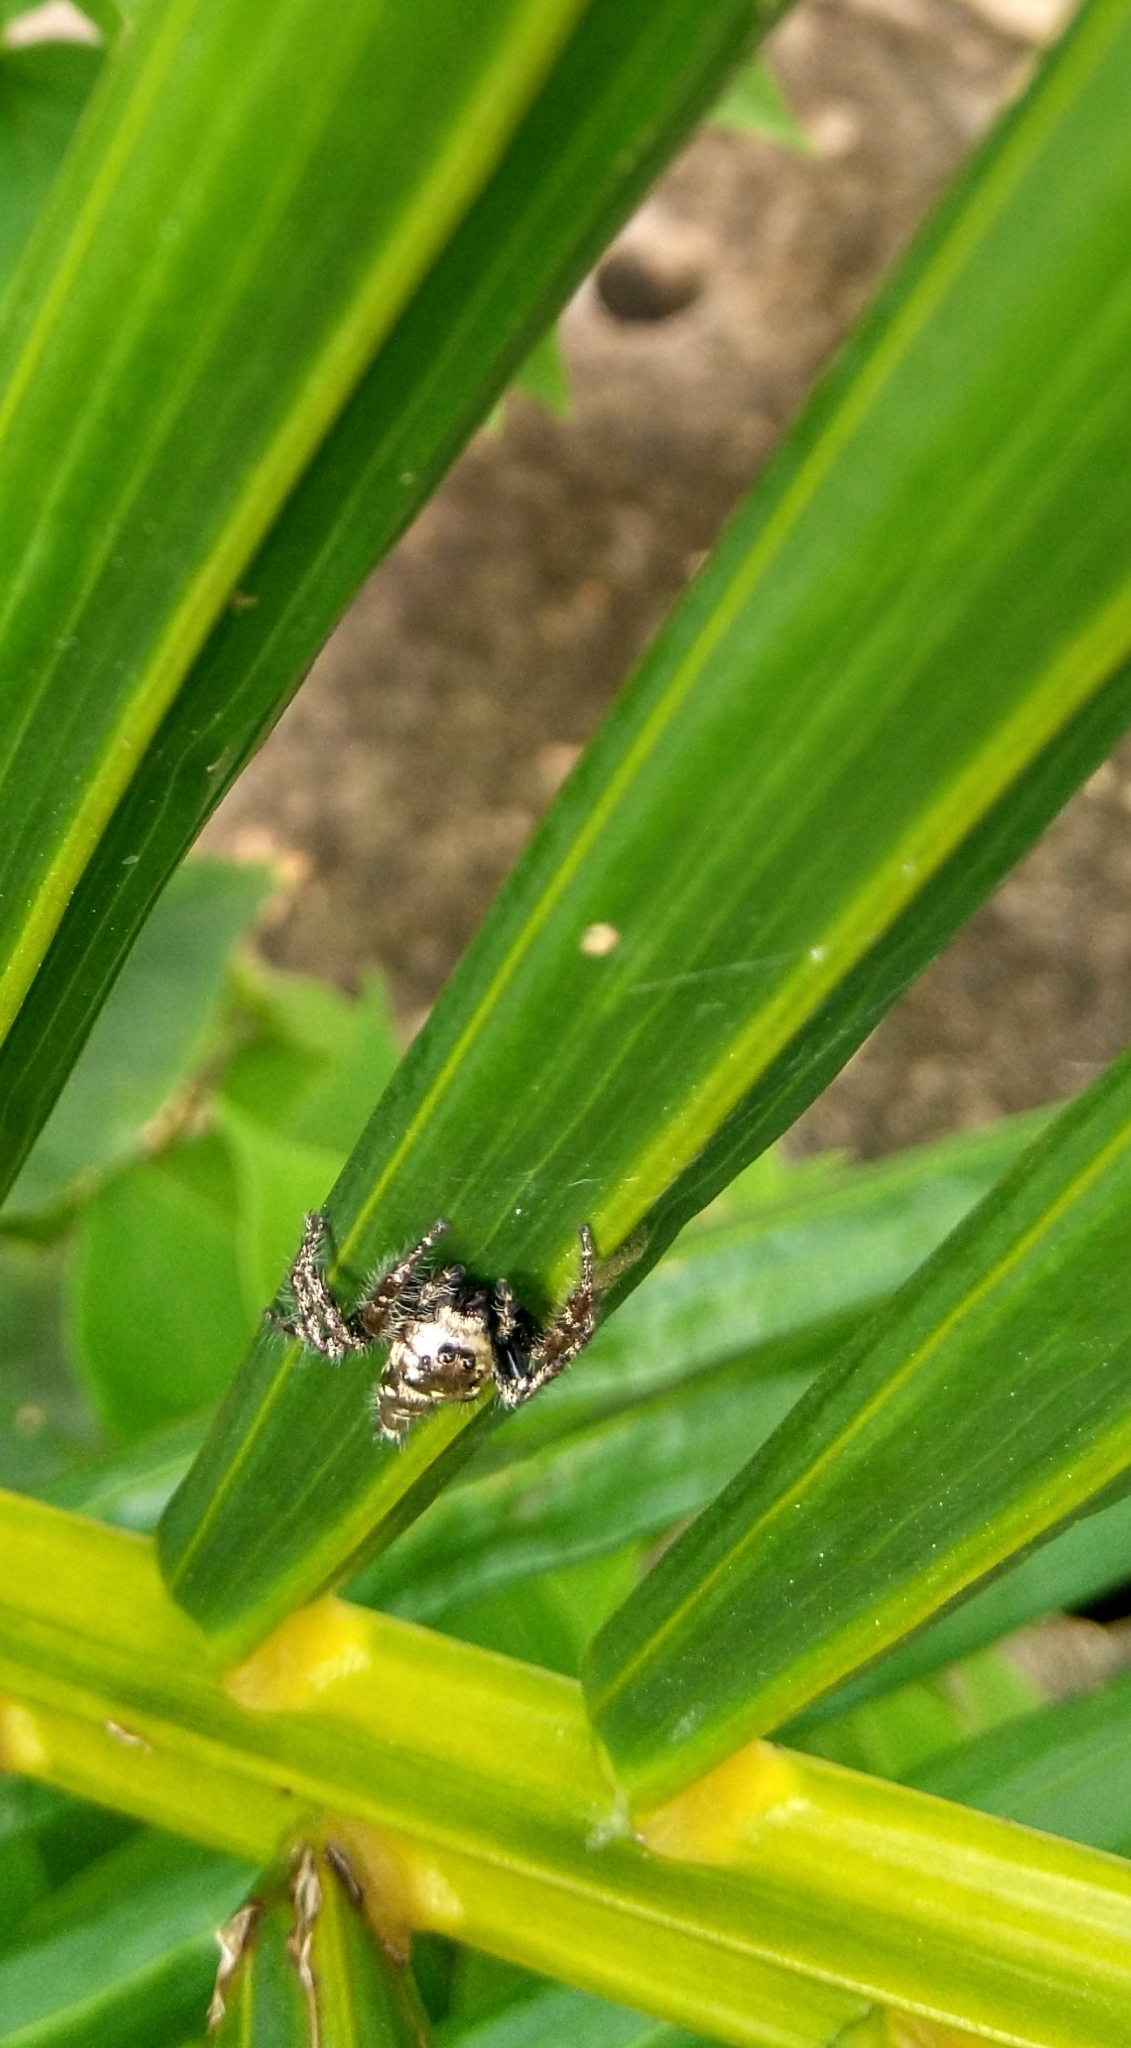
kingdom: Animalia
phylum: Arthropoda
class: Arachnida
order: Araneae
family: Salticidae
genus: Hyllus
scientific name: Hyllus semicupreus
